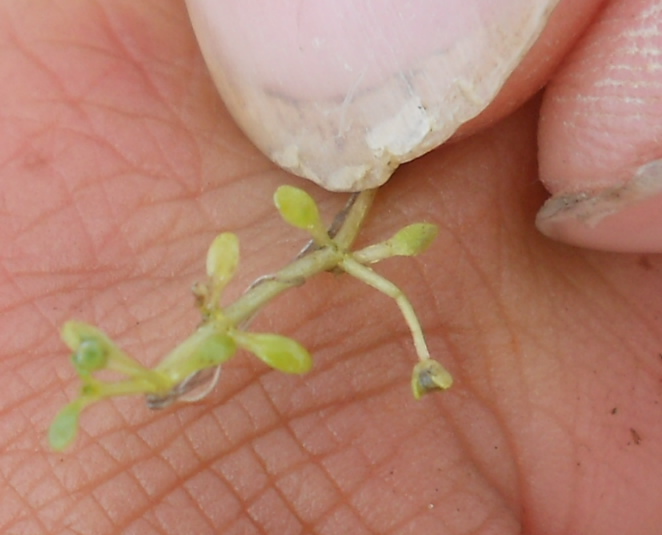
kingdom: Plantae
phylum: Tracheophyta
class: Magnoliopsida
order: Malpighiales
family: Elatinaceae
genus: Elatine
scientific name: Elatine hexandra
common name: Six-stamened waterwort
